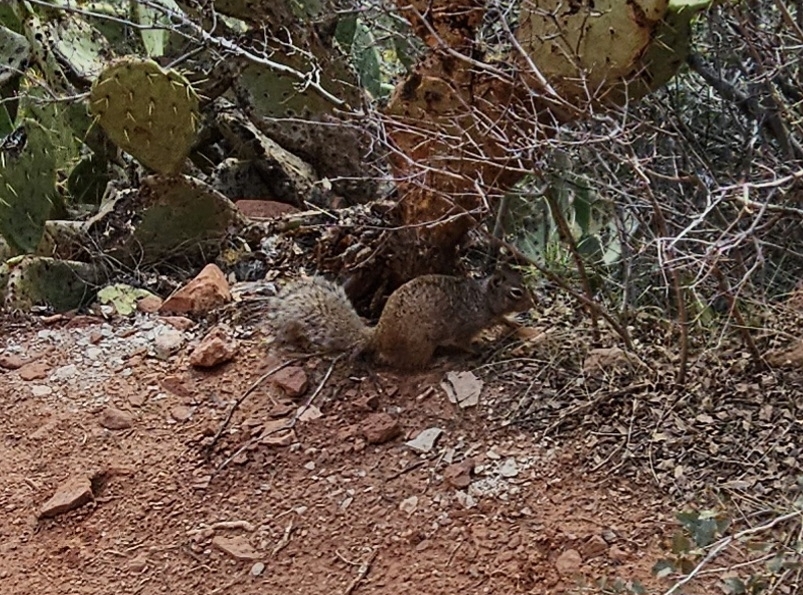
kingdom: Animalia
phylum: Chordata
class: Mammalia
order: Rodentia
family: Sciuridae
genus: Otospermophilus
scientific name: Otospermophilus variegatus
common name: Rock squirrel
